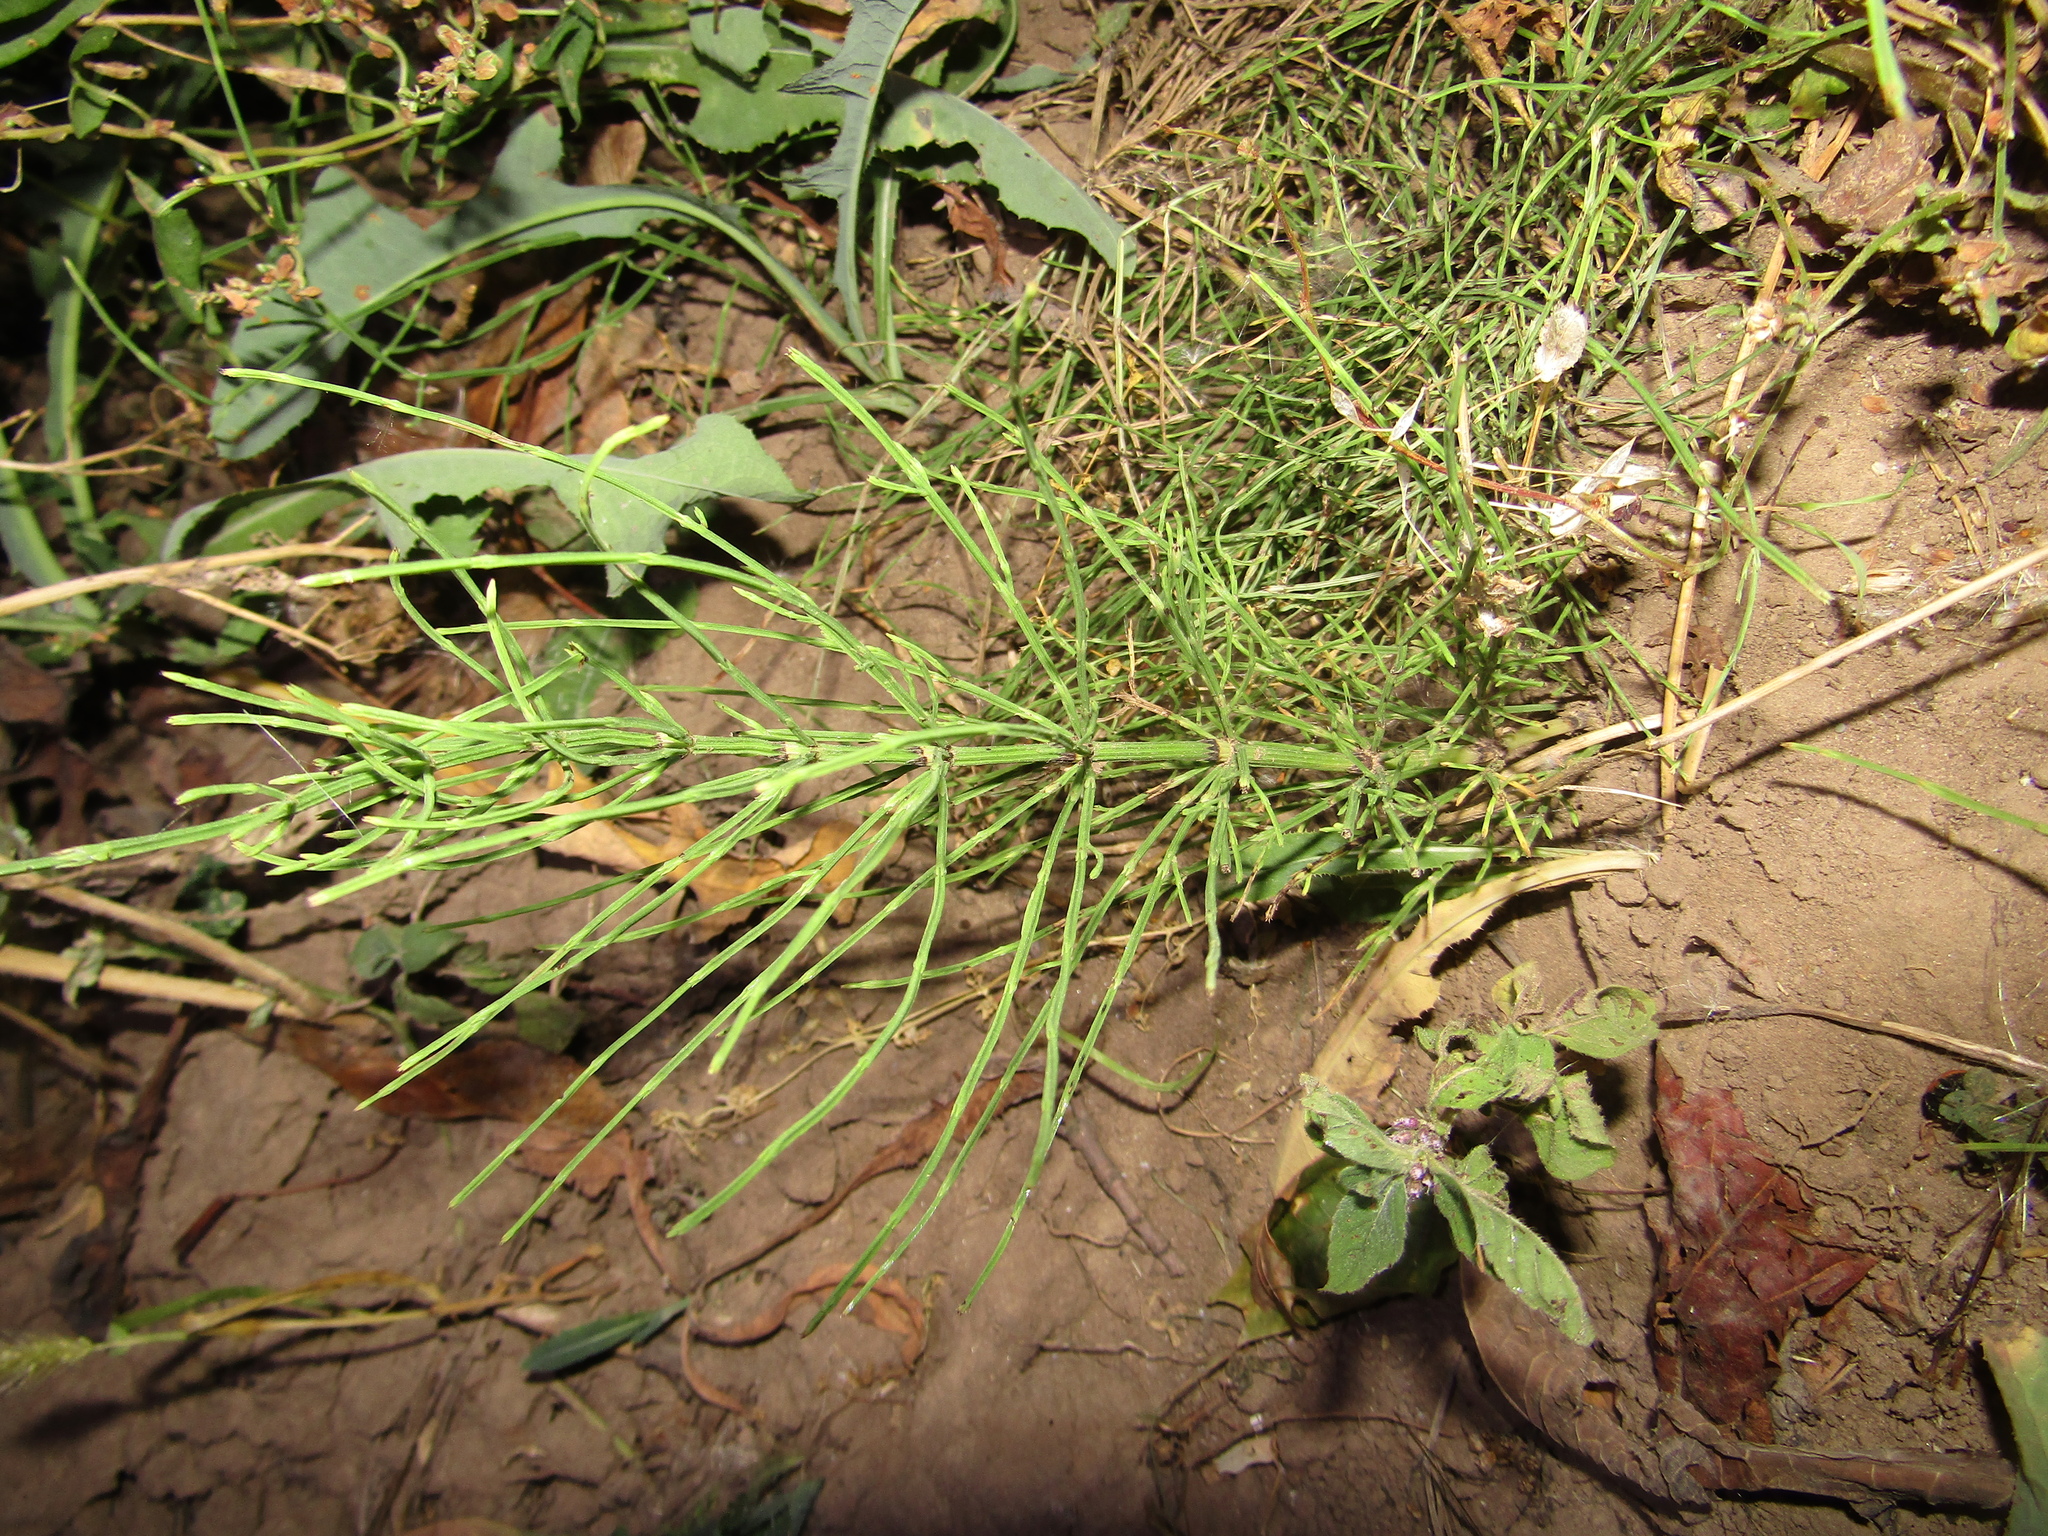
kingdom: Plantae
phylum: Tracheophyta
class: Polypodiopsida
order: Equisetales
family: Equisetaceae
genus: Equisetum
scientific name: Equisetum arvense
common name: Field horsetail
